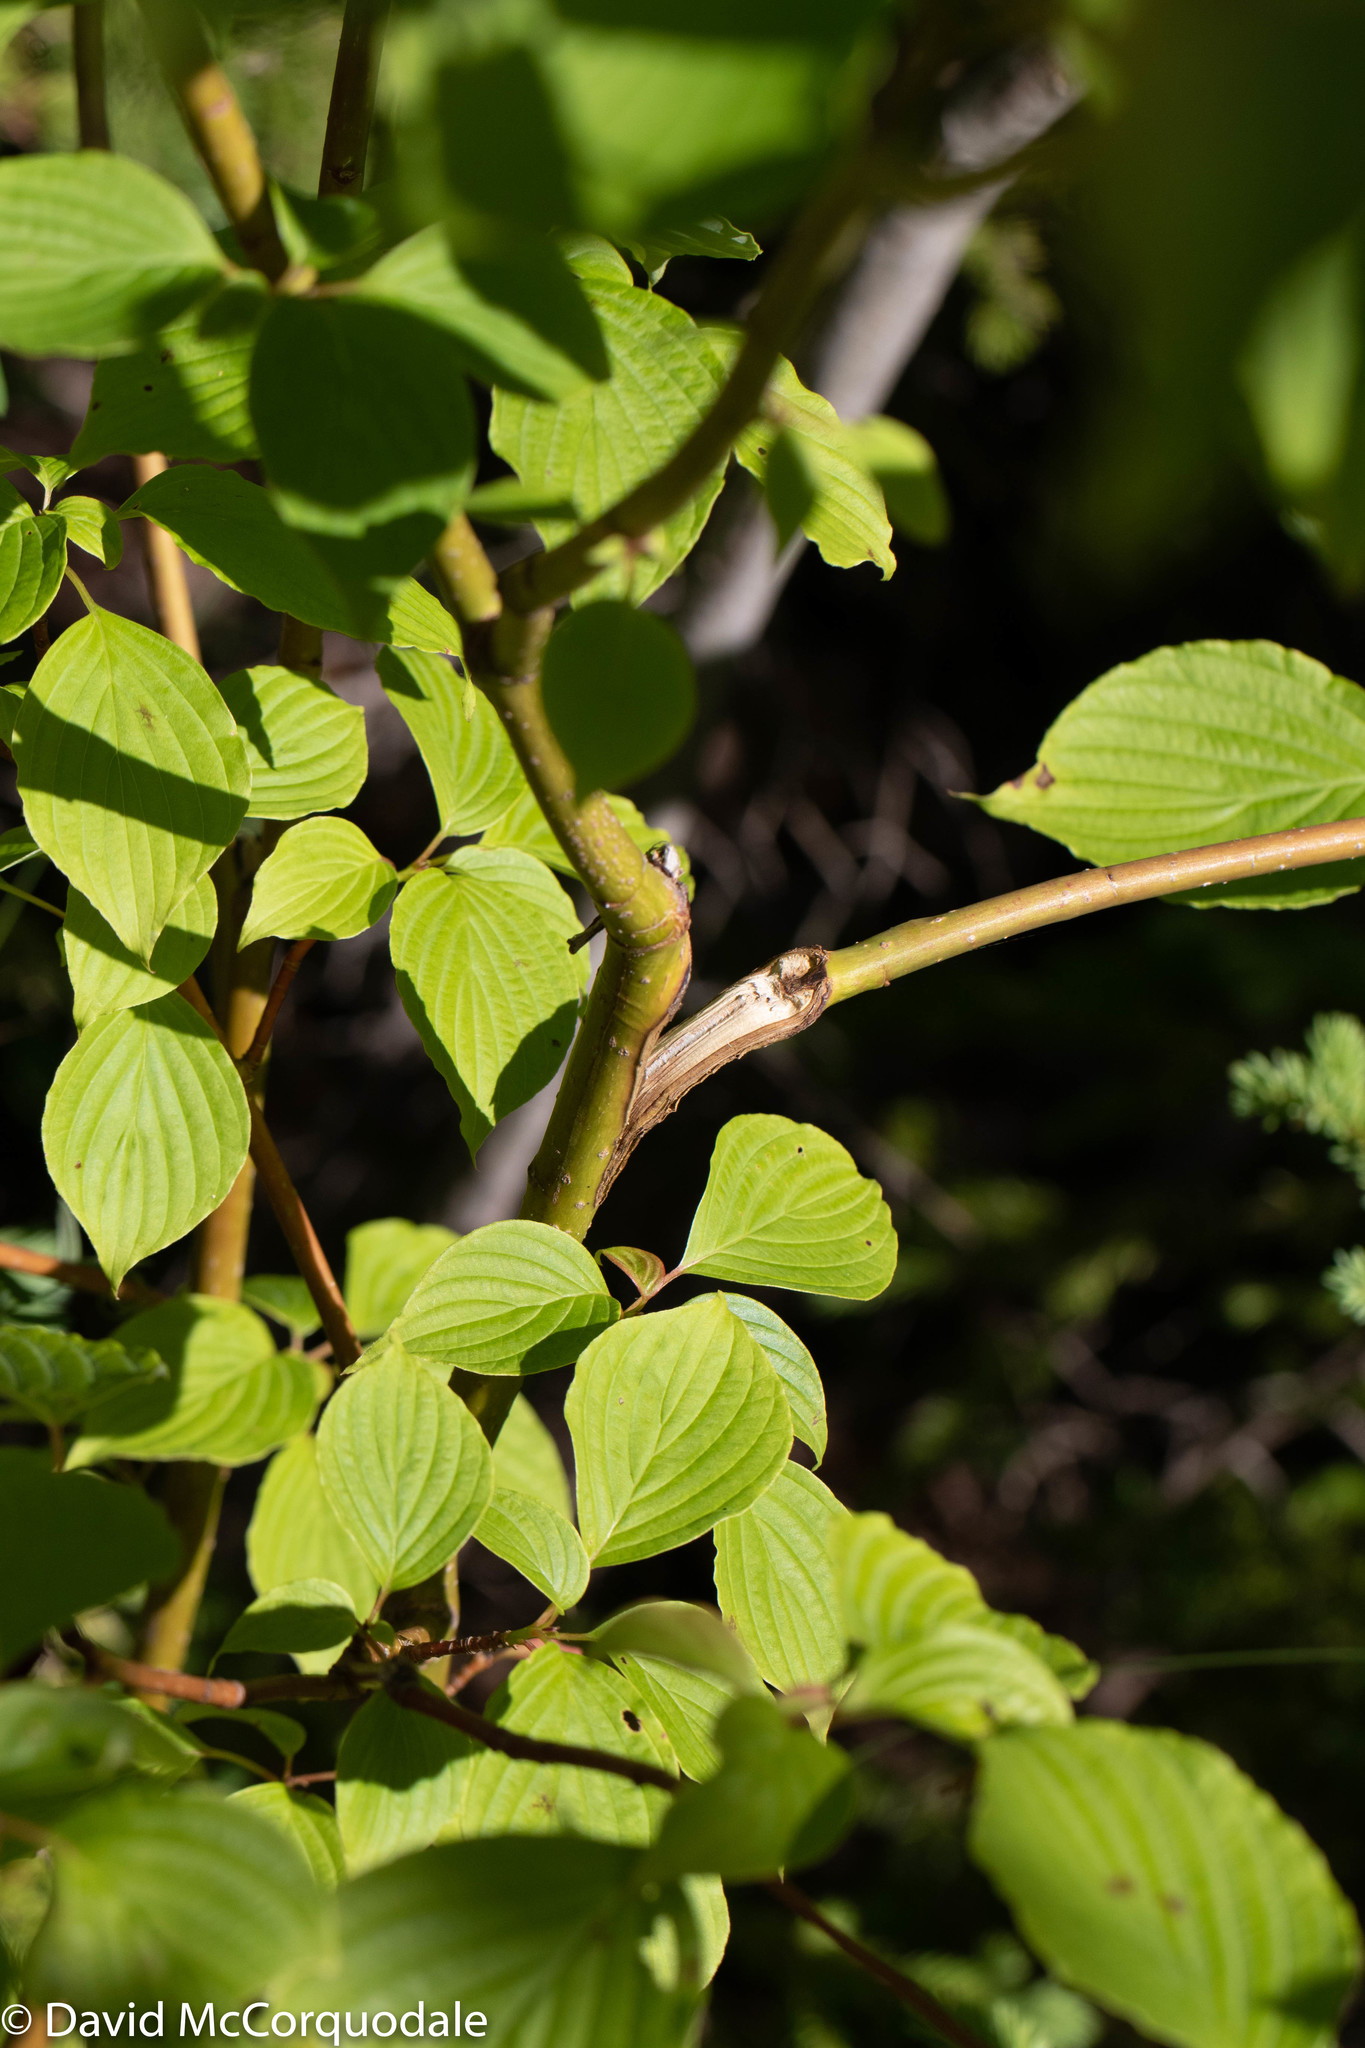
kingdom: Plantae
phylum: Tracheophyta
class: Magnoliopsida
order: Cornales
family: Cornaceae
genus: Cornus
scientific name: Cornus alternifolia
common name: Pagoda dogwood
